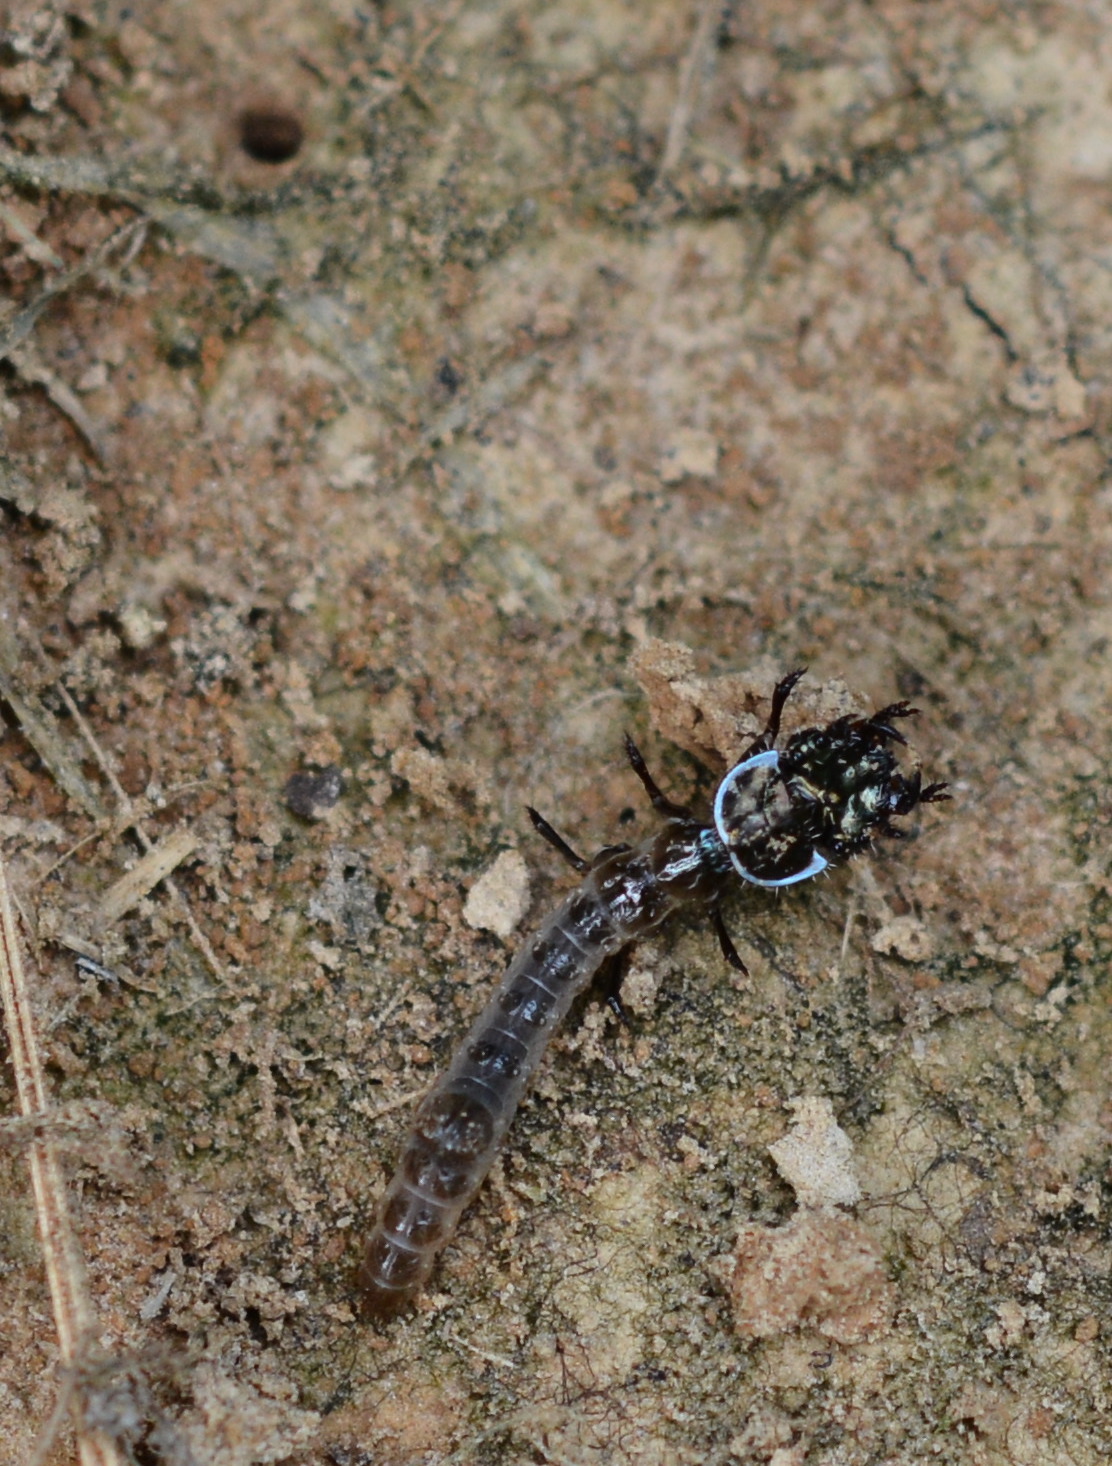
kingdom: Animalia
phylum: Arthropoda
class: Insecta
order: Coleoptera
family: Carabidae
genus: Tetracha
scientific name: Tetracha
